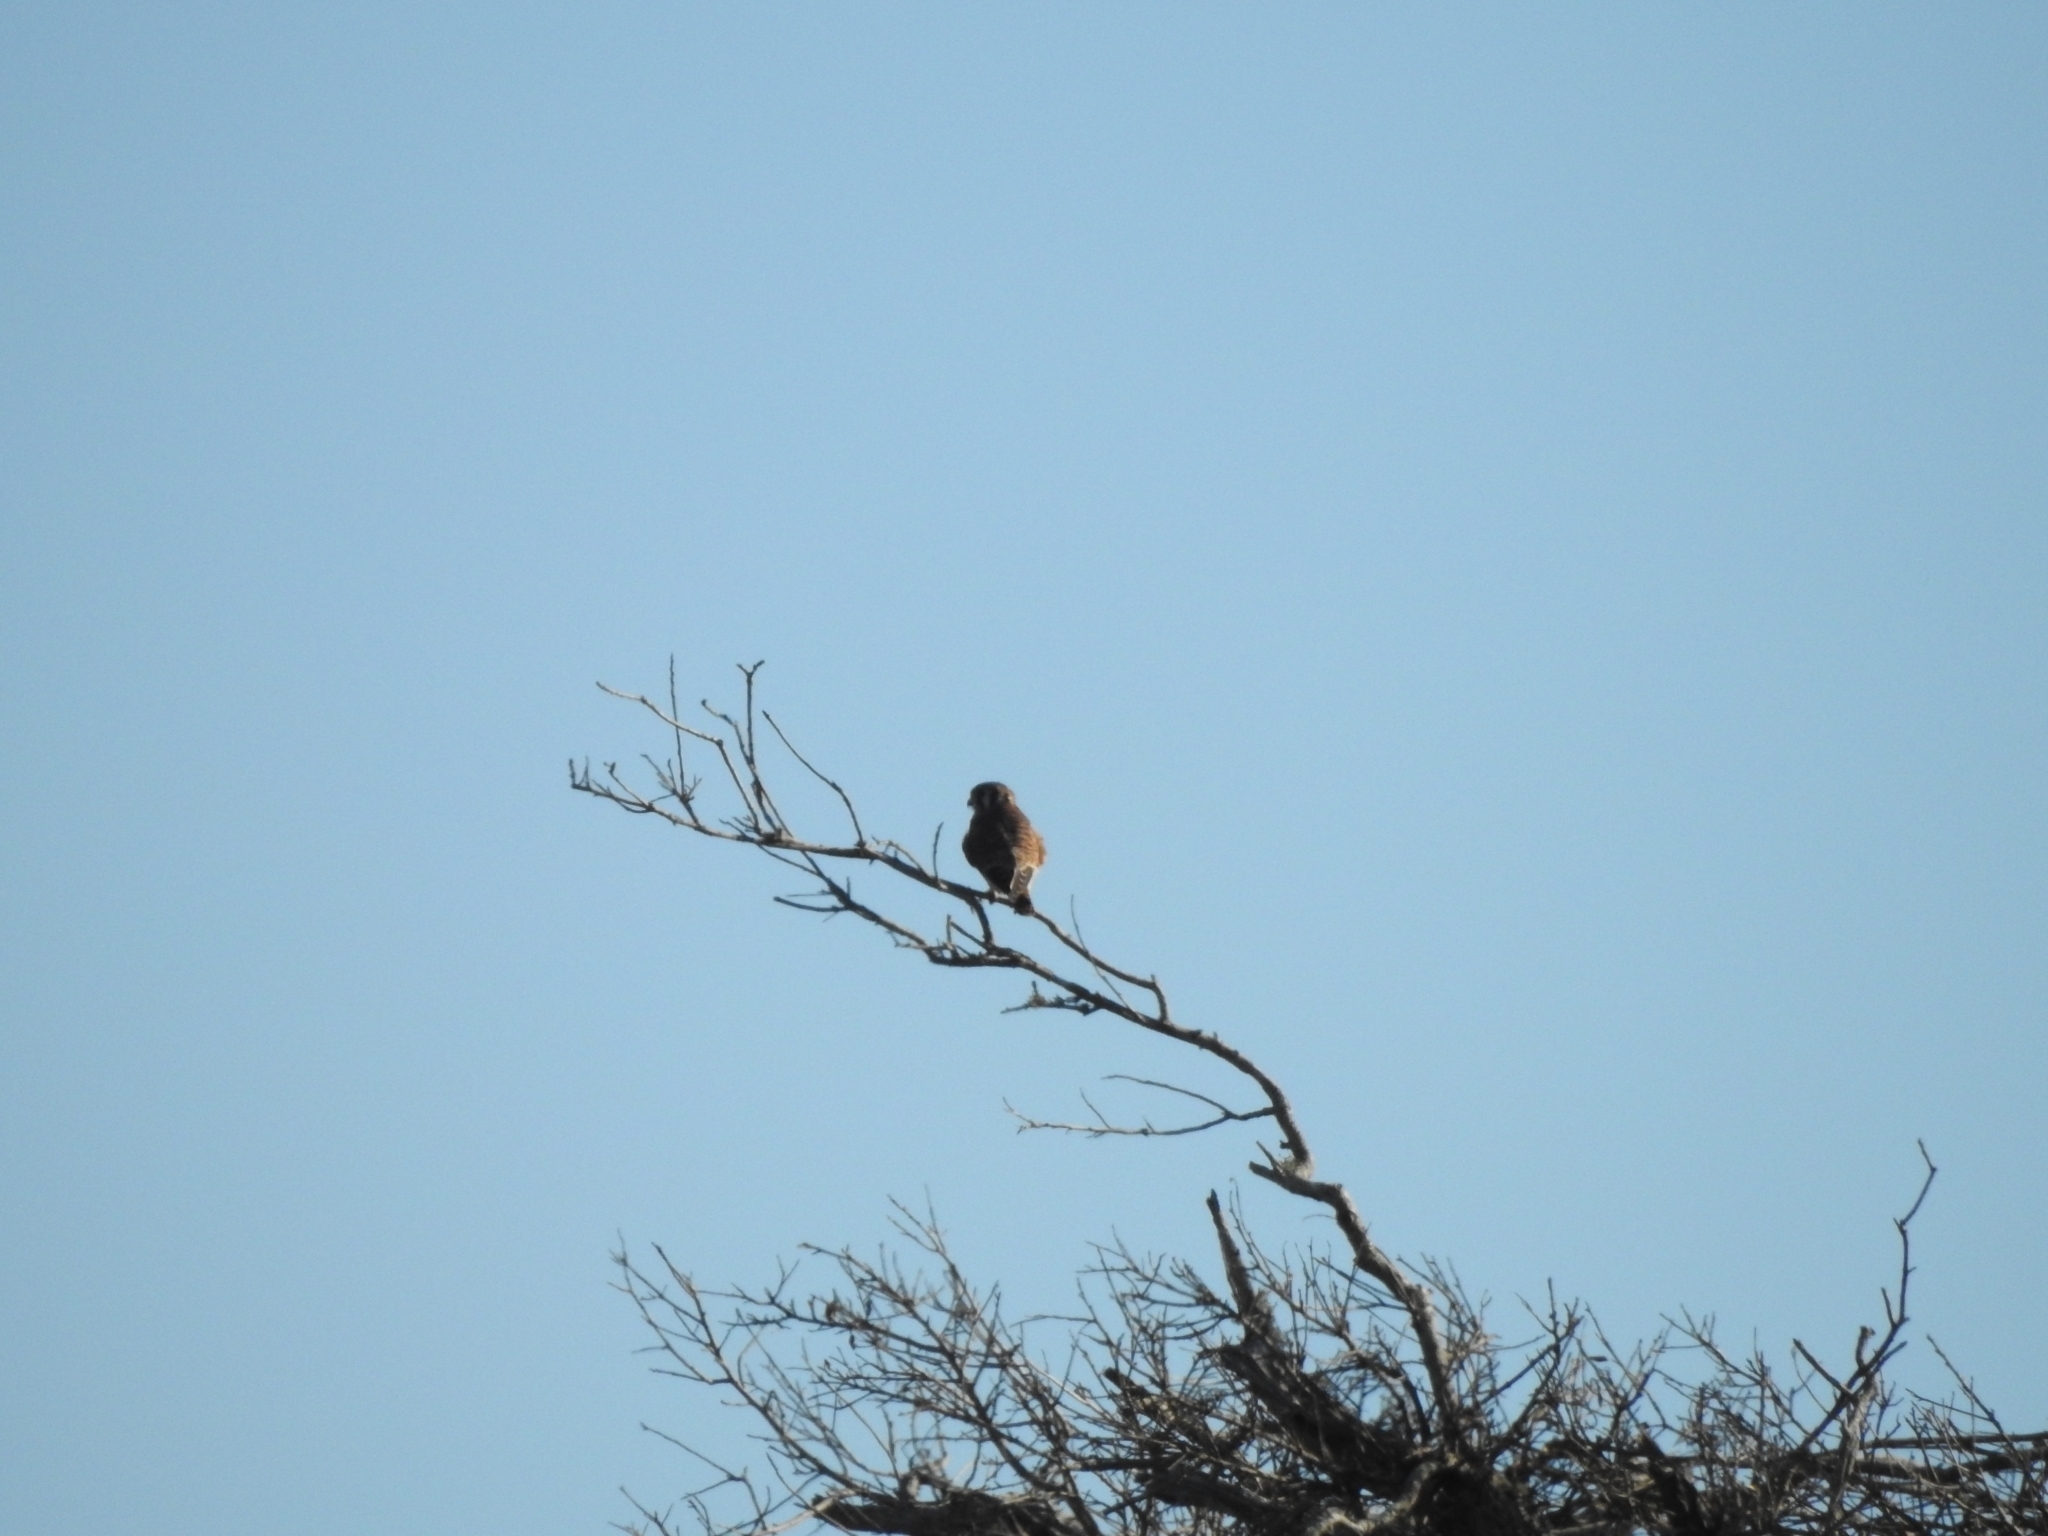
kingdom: Animalia
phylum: Chordata
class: Aves
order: Falconiformes
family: Falconidae
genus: Falco
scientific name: Falco sparverius
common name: American kestrel
